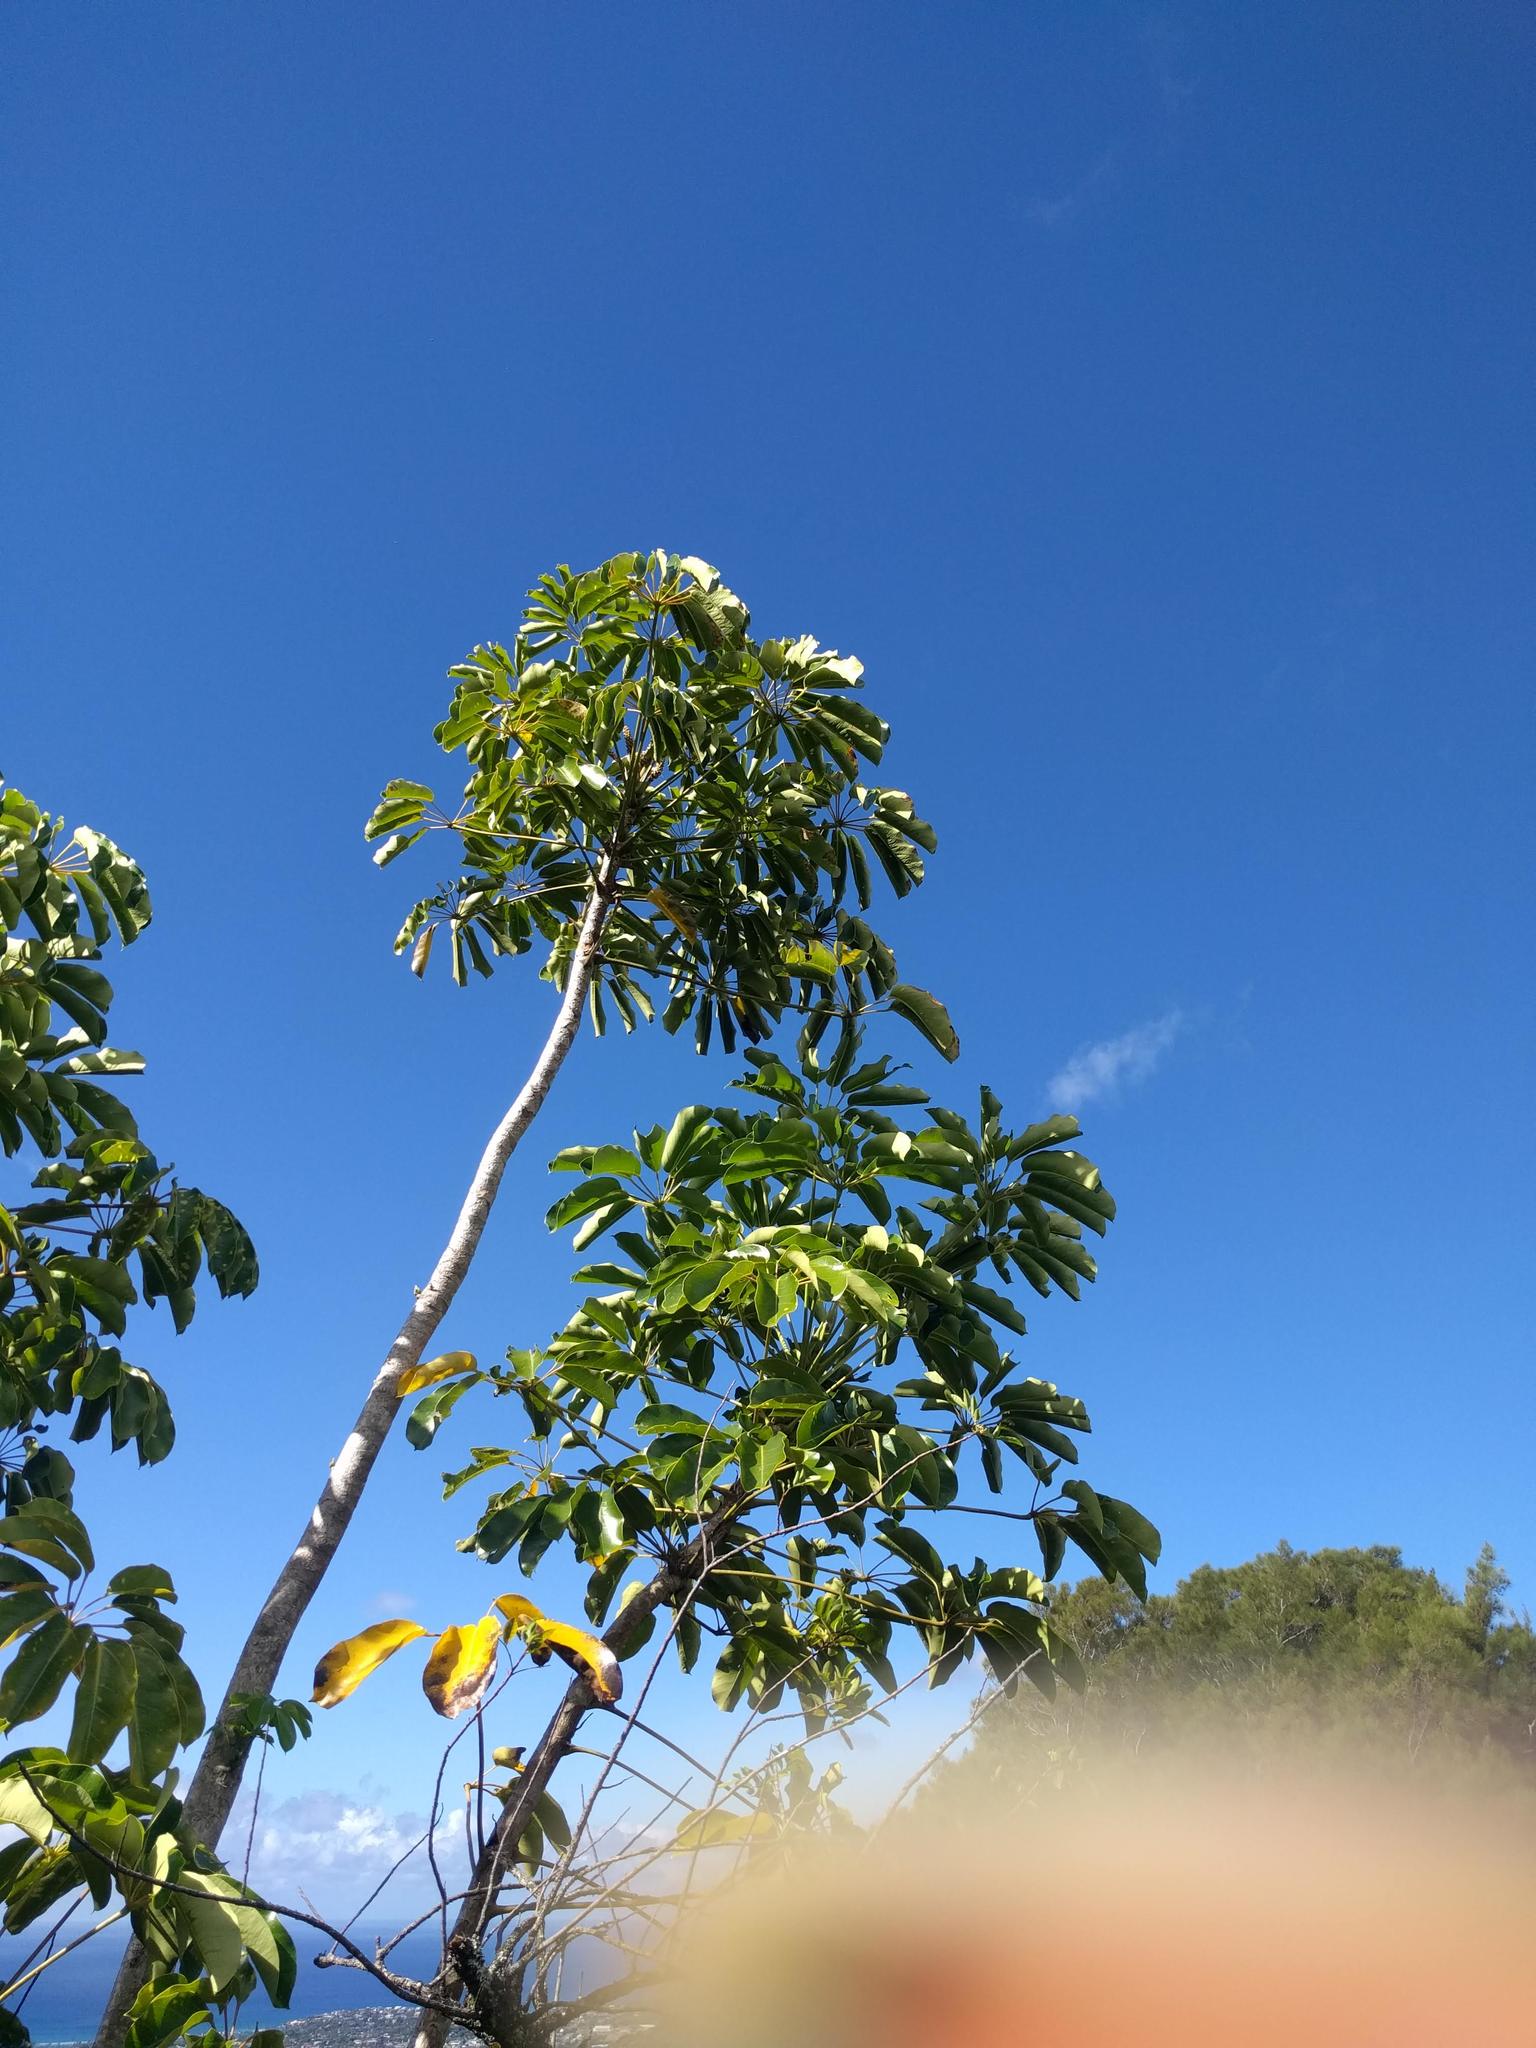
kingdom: Plantae
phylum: Tracheophyta
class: Magnoliopsida
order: Apiales
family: Araliaceae
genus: Heptapleurum
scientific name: Heptapleurum actinophyllum
